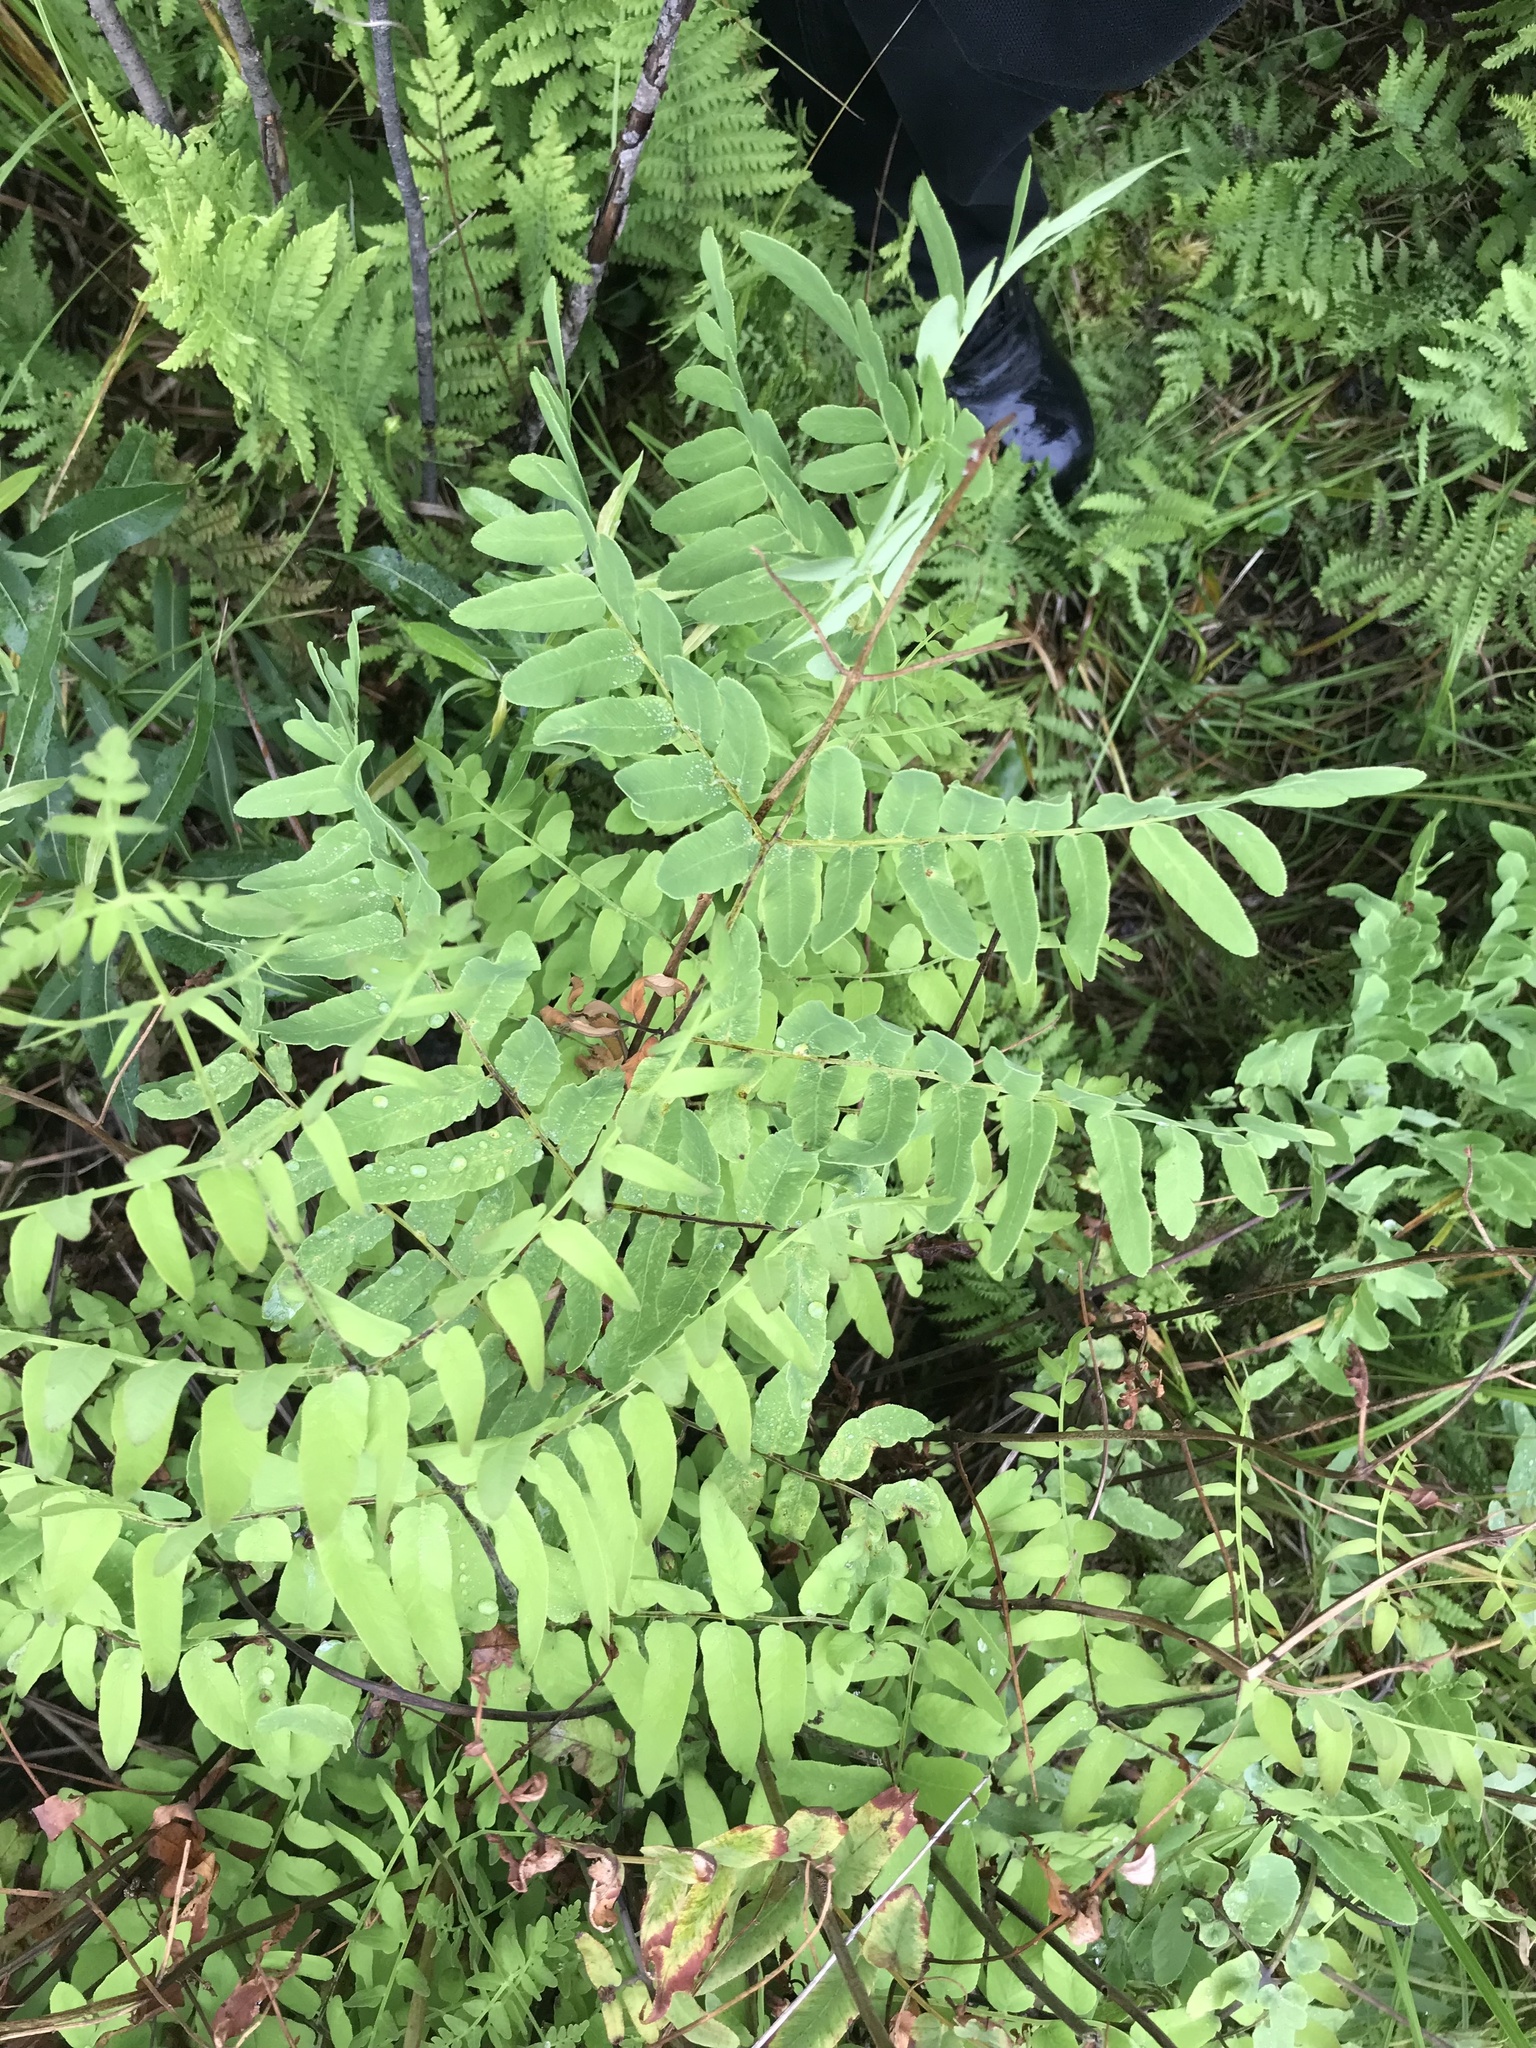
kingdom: Plantae
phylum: Tracheophyta
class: Polypodiopsida
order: Osmundales
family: Osmundaceae
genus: Osmunda
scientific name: Osmunda spectabilis
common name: American royal fern
